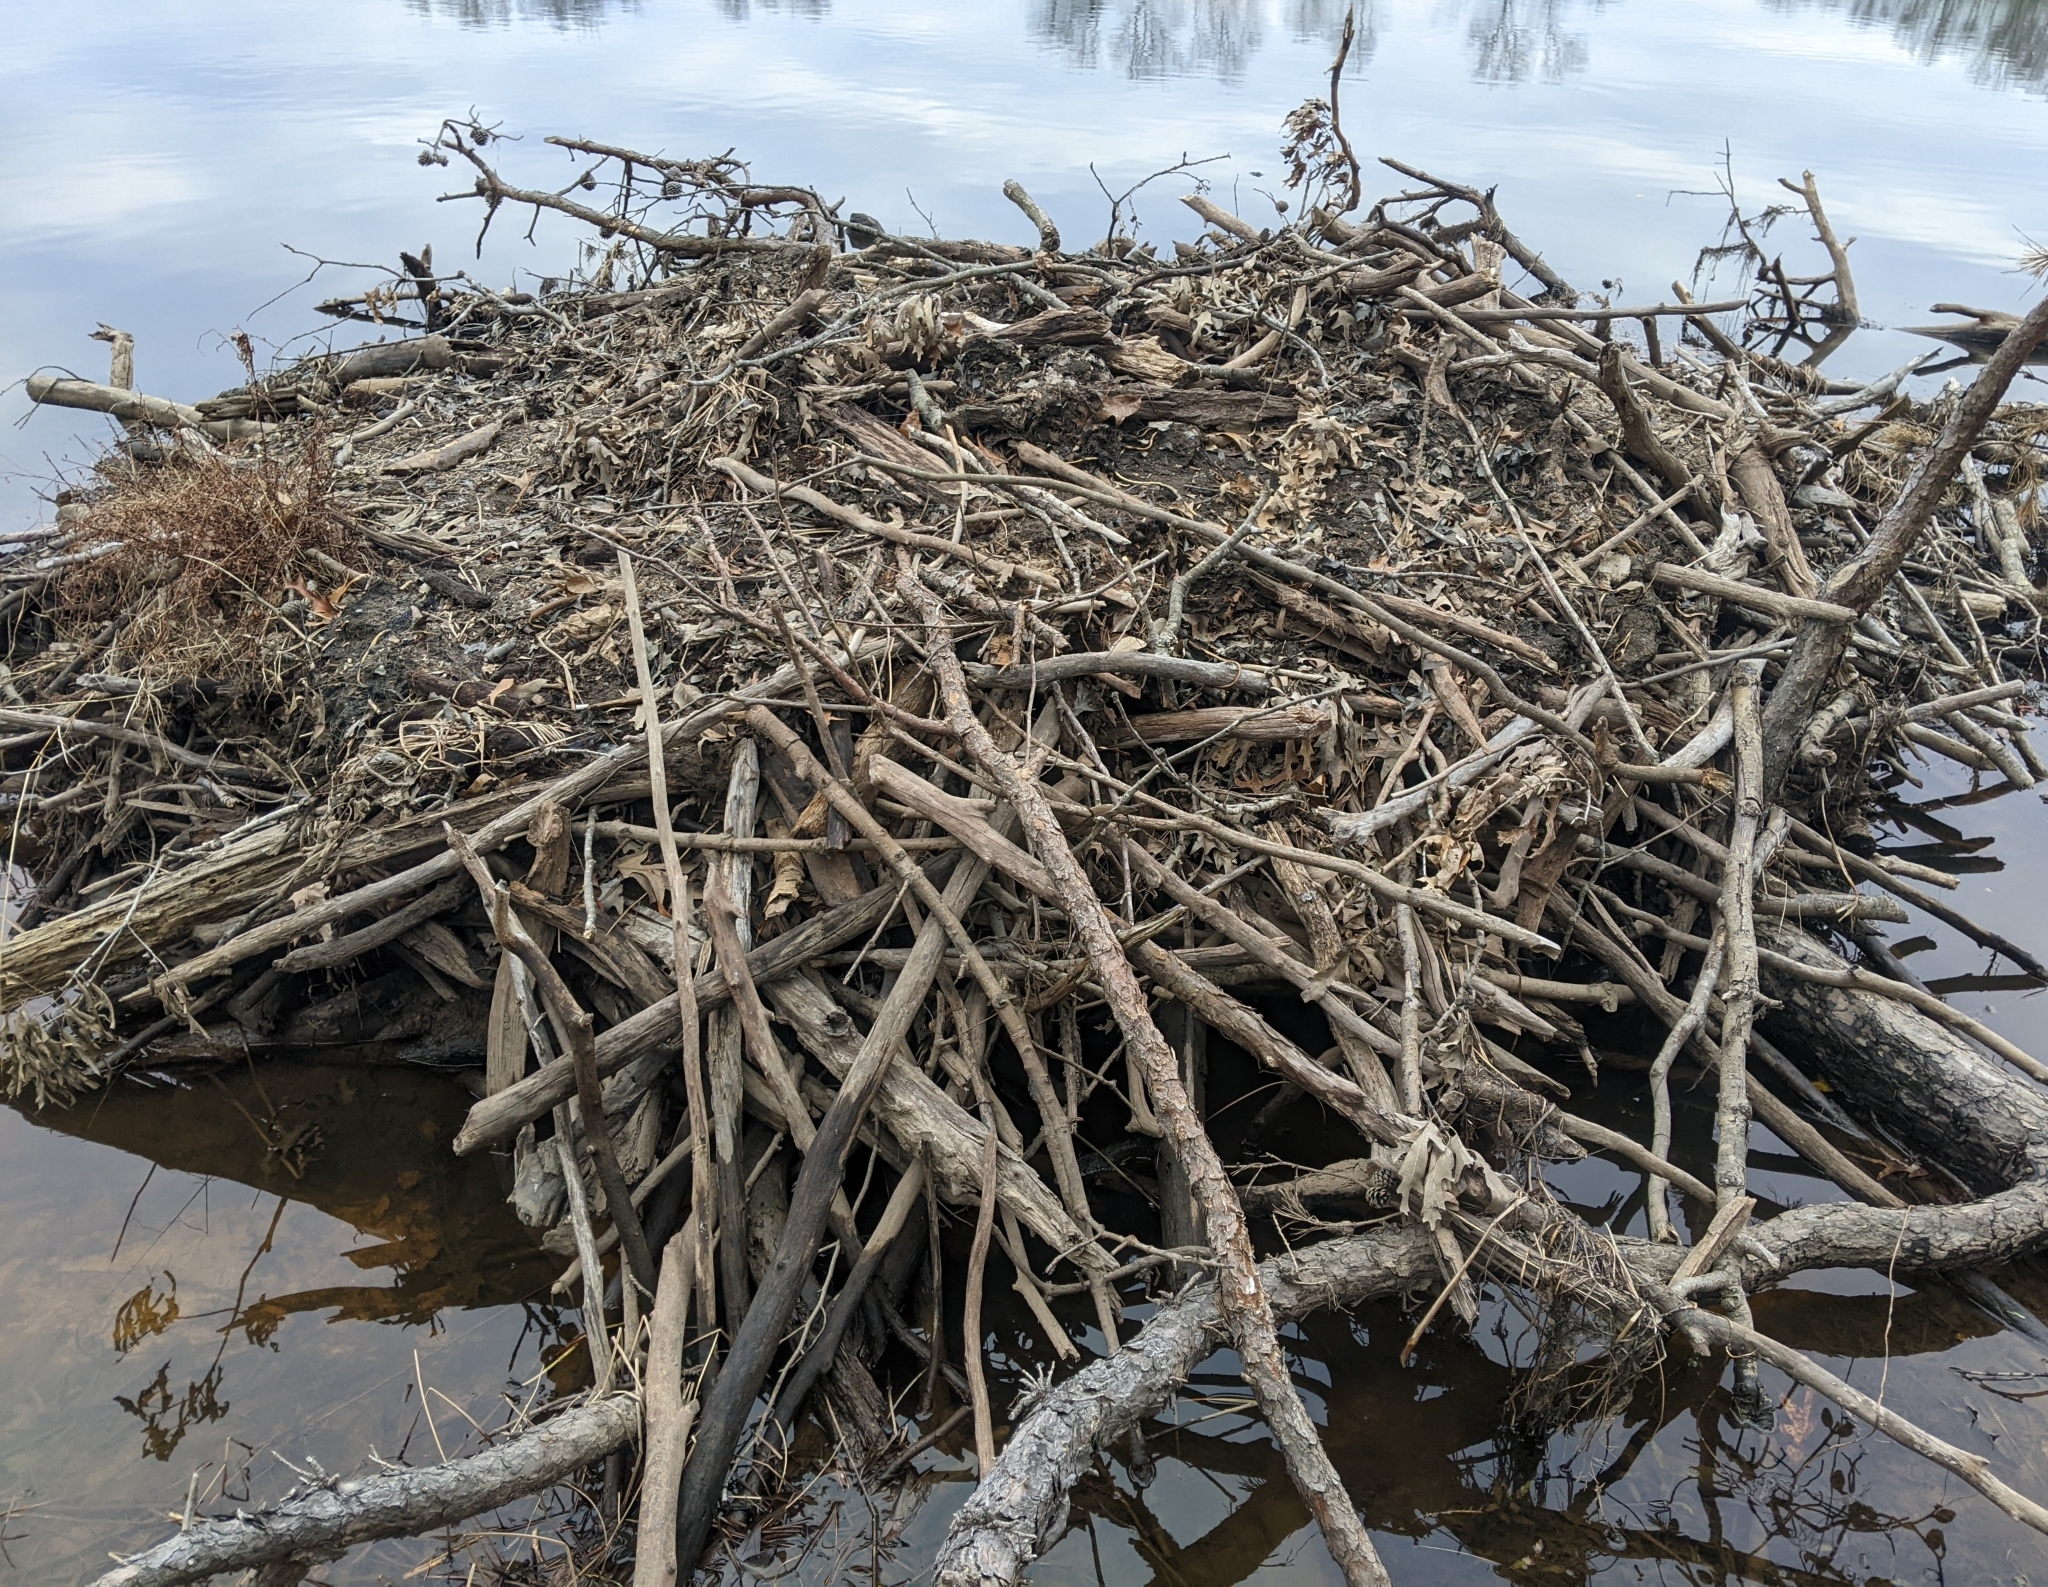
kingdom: Animalia
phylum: Chordata
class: Mammalia
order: Rodentia
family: Castoridae
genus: Castor
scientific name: Castor canadensis
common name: American beaver
